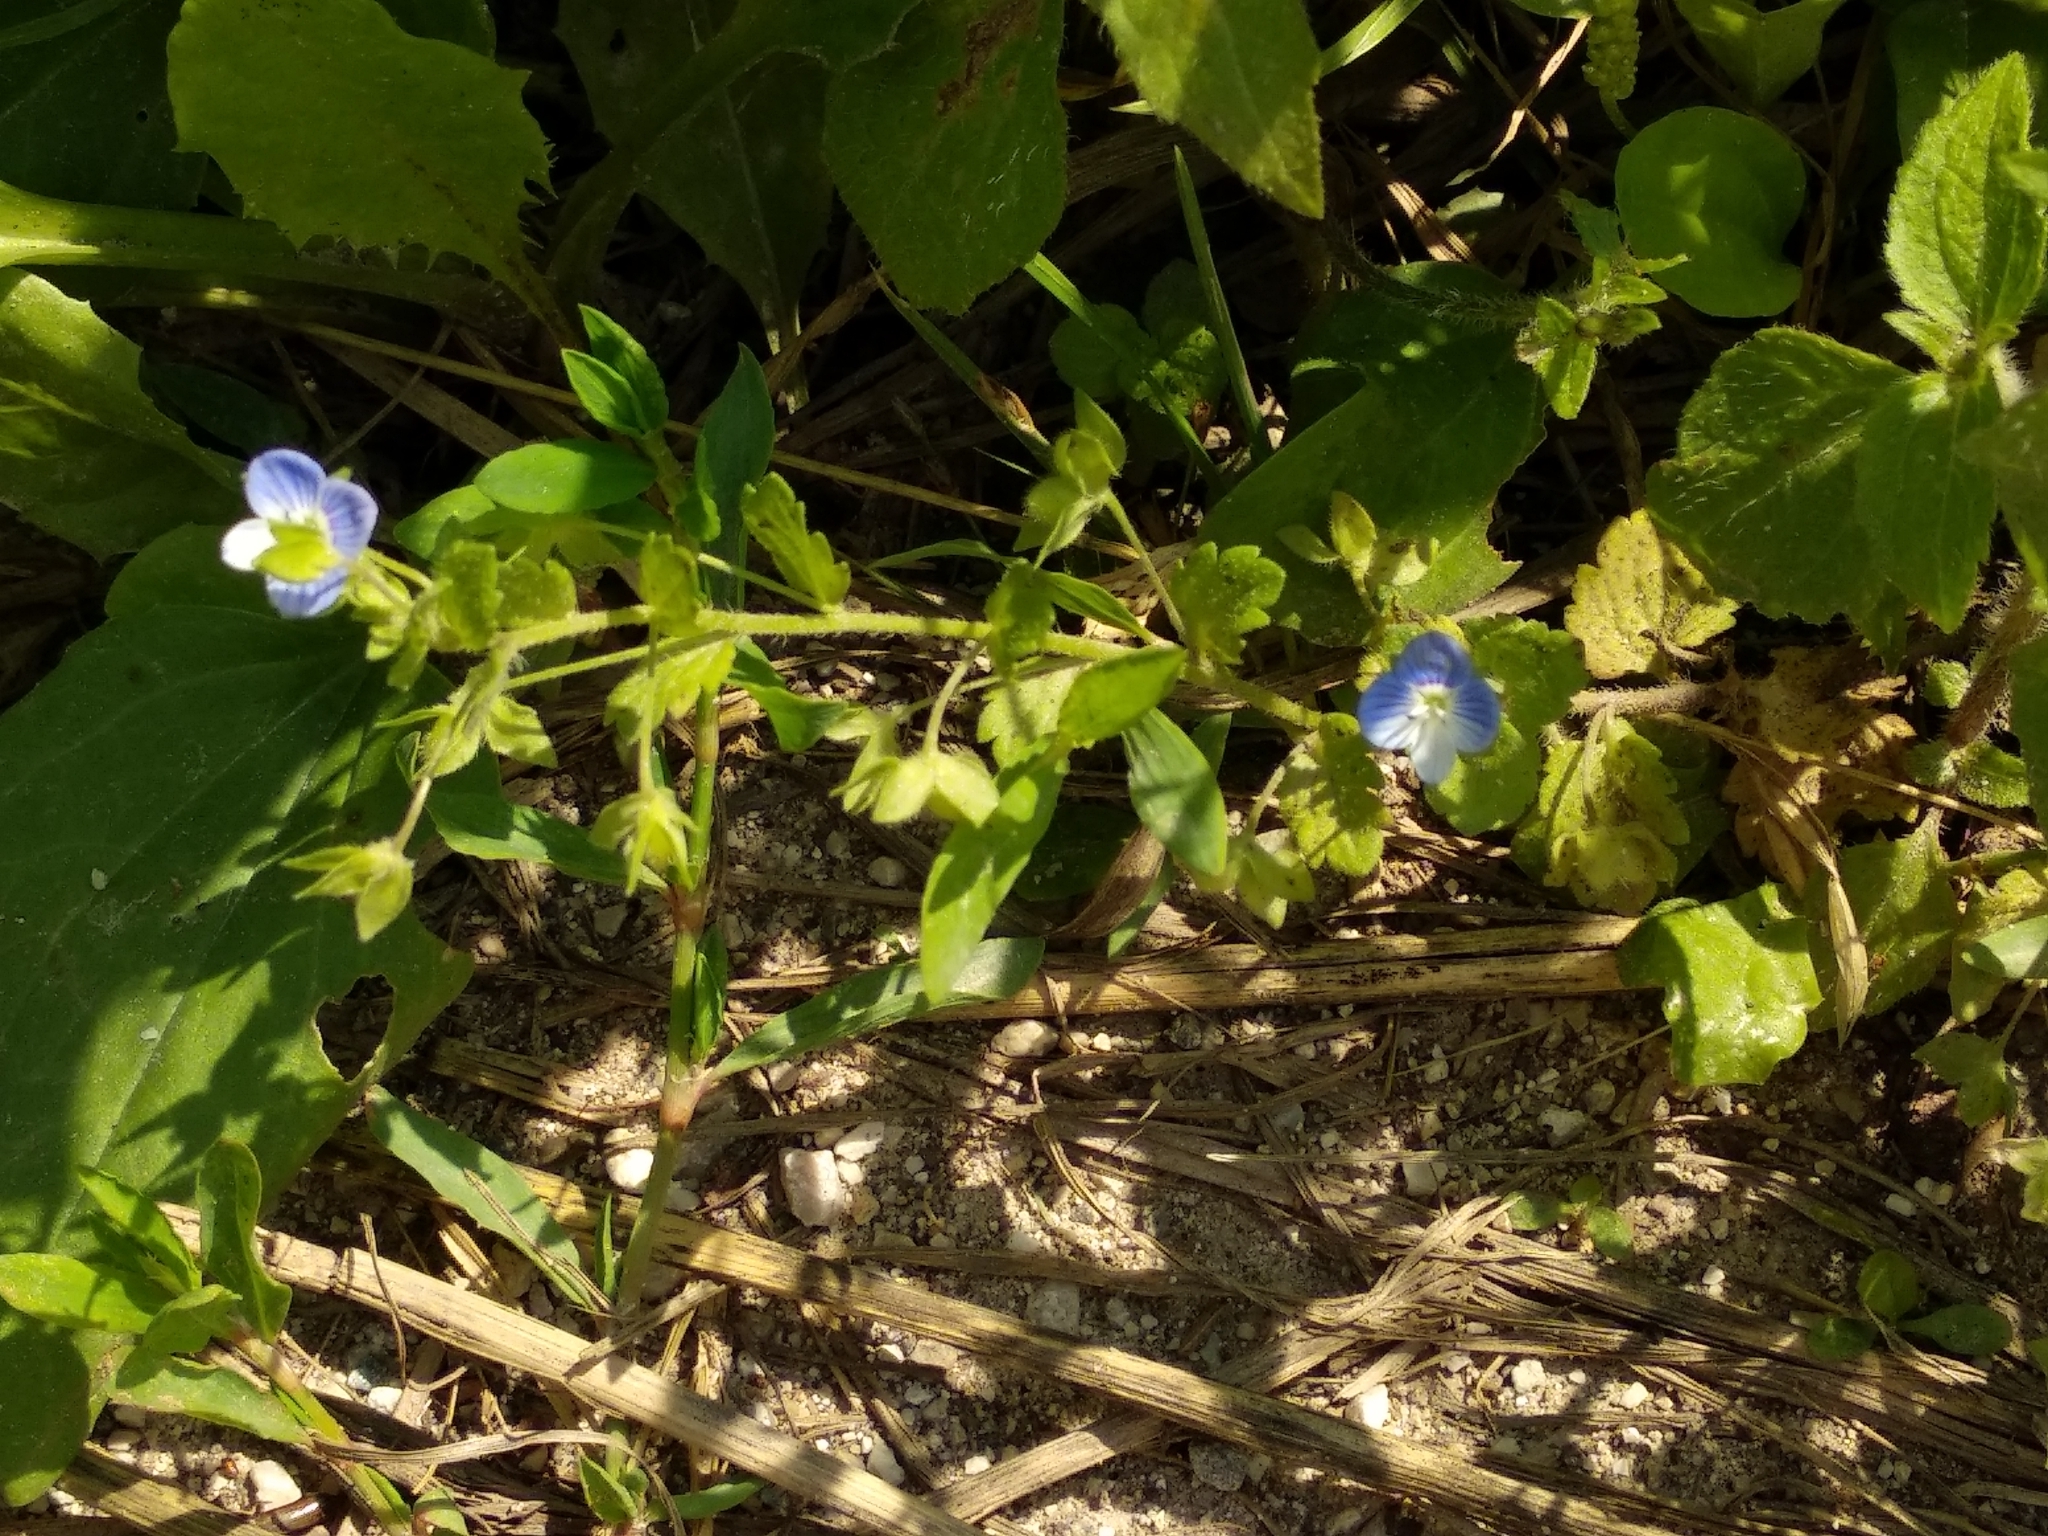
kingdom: Plantae
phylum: Tracheophyta
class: Magnoliopsida
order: Lamiales
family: Plantaginaceae
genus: Veronica
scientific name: Veronica persica
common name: Common field-speedwell
